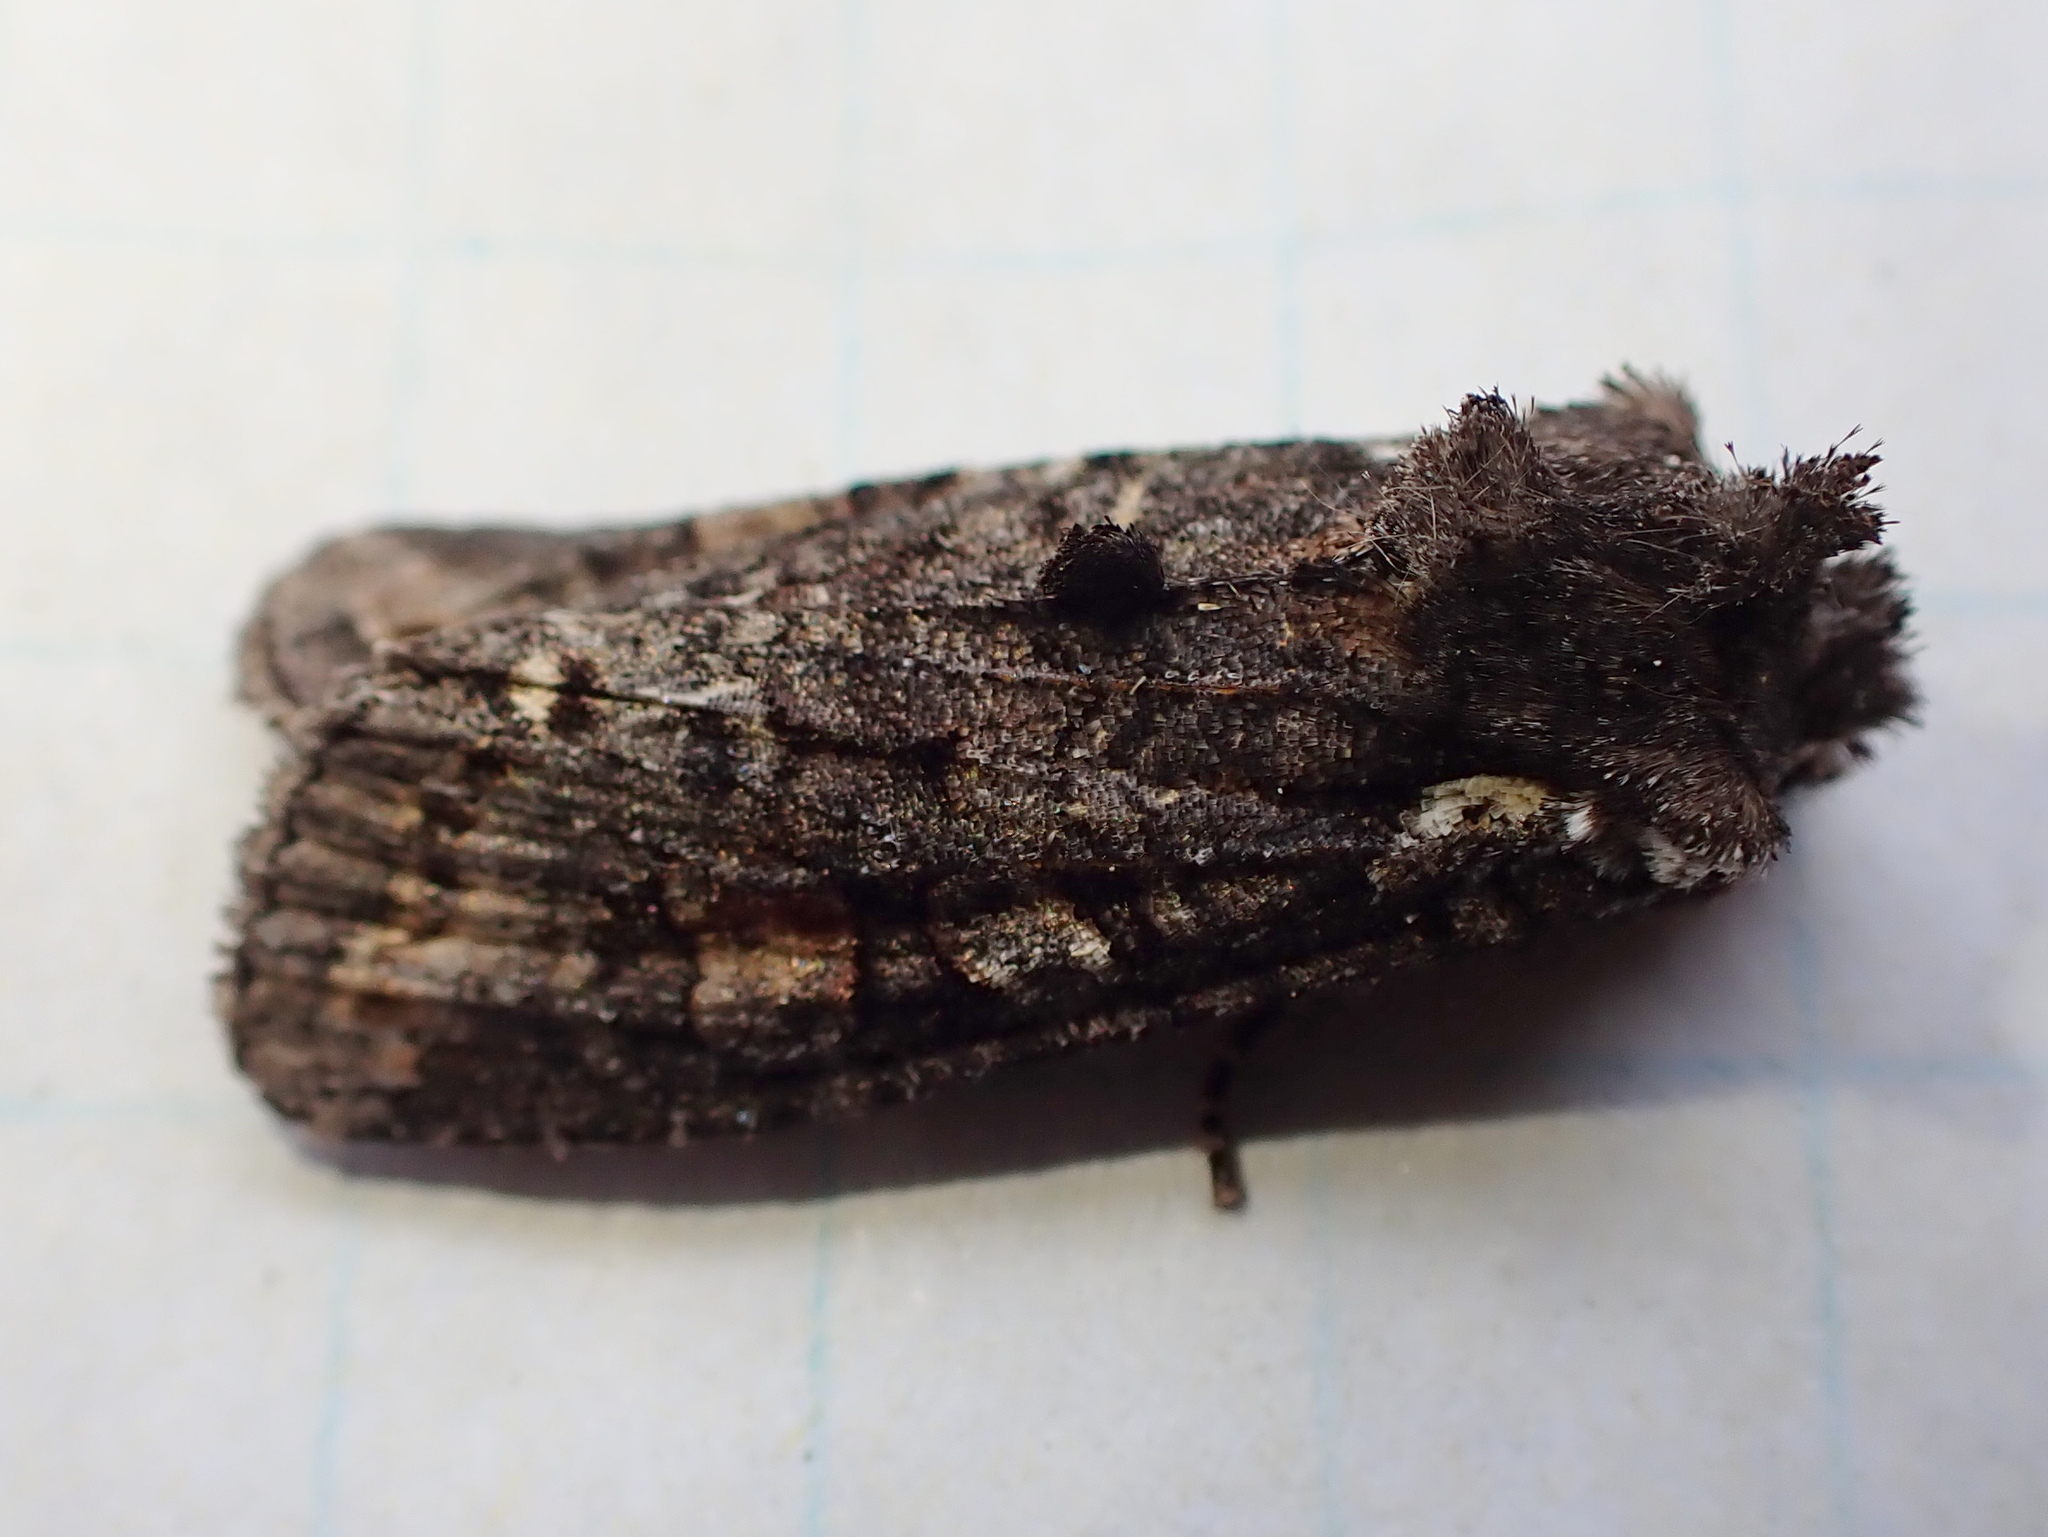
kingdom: Animalia
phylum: Arthropoda
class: Insecta
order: Lepidoptera
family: Noctuidae
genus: Lithophane
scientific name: Lithophane pexata
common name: Plush-naped pinion moth
